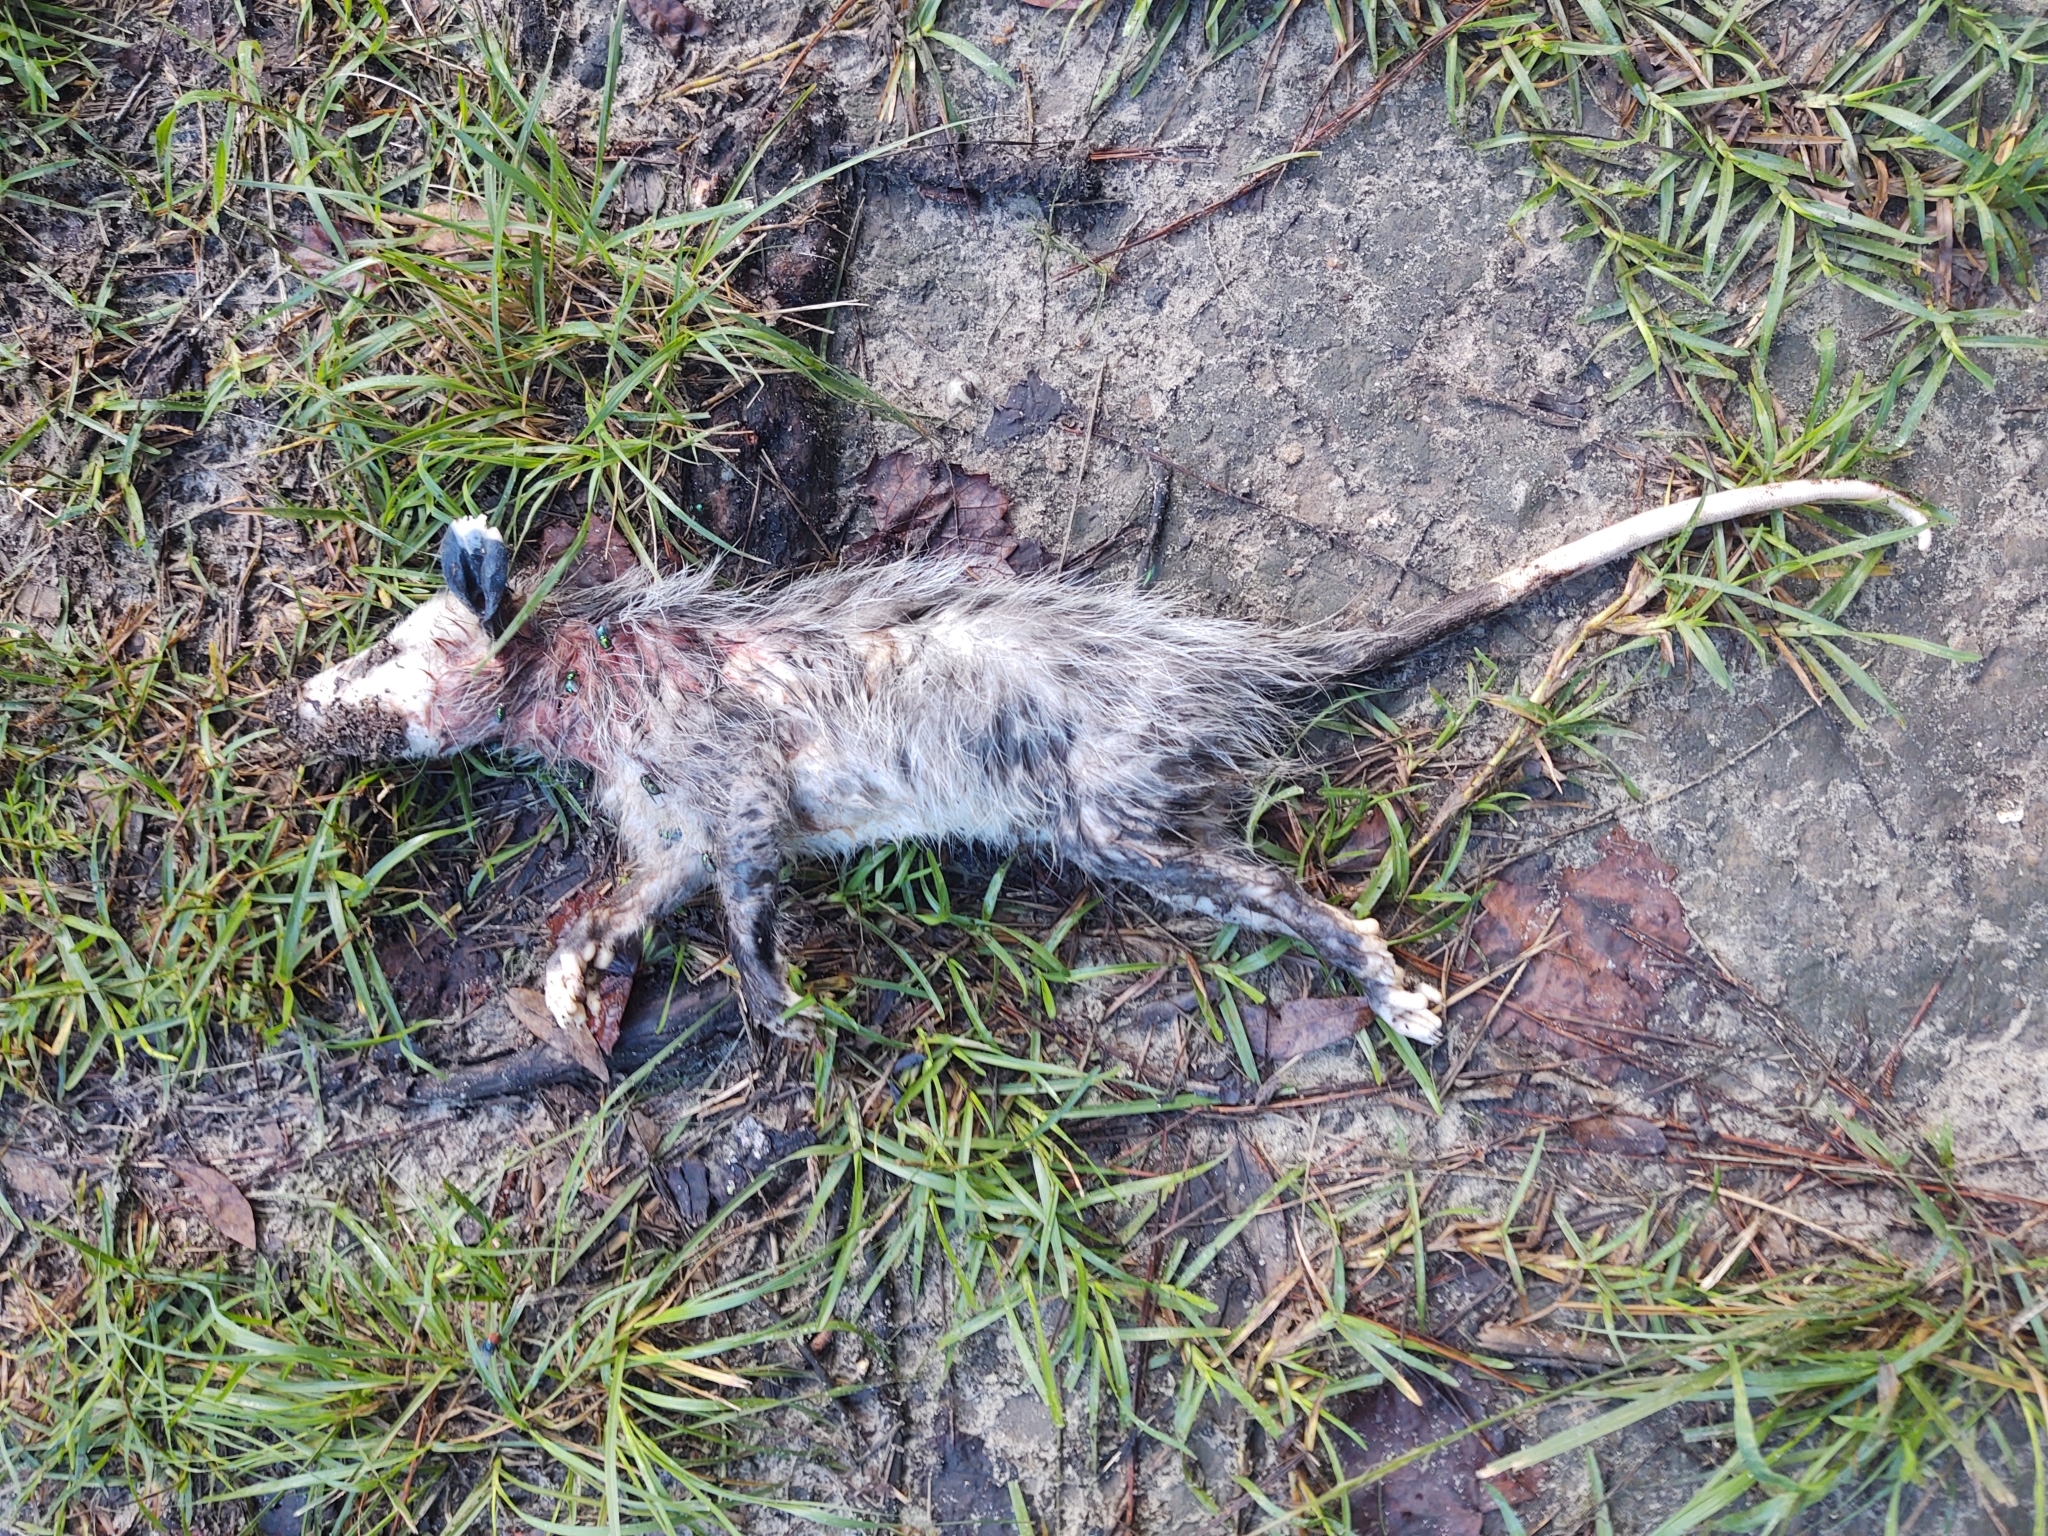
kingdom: Animalia
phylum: Chordata
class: Mammalia
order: Didelphimorphia
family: Didelphidae
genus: Didelphis
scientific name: Didelphis virginiana
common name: Virginia opossum
